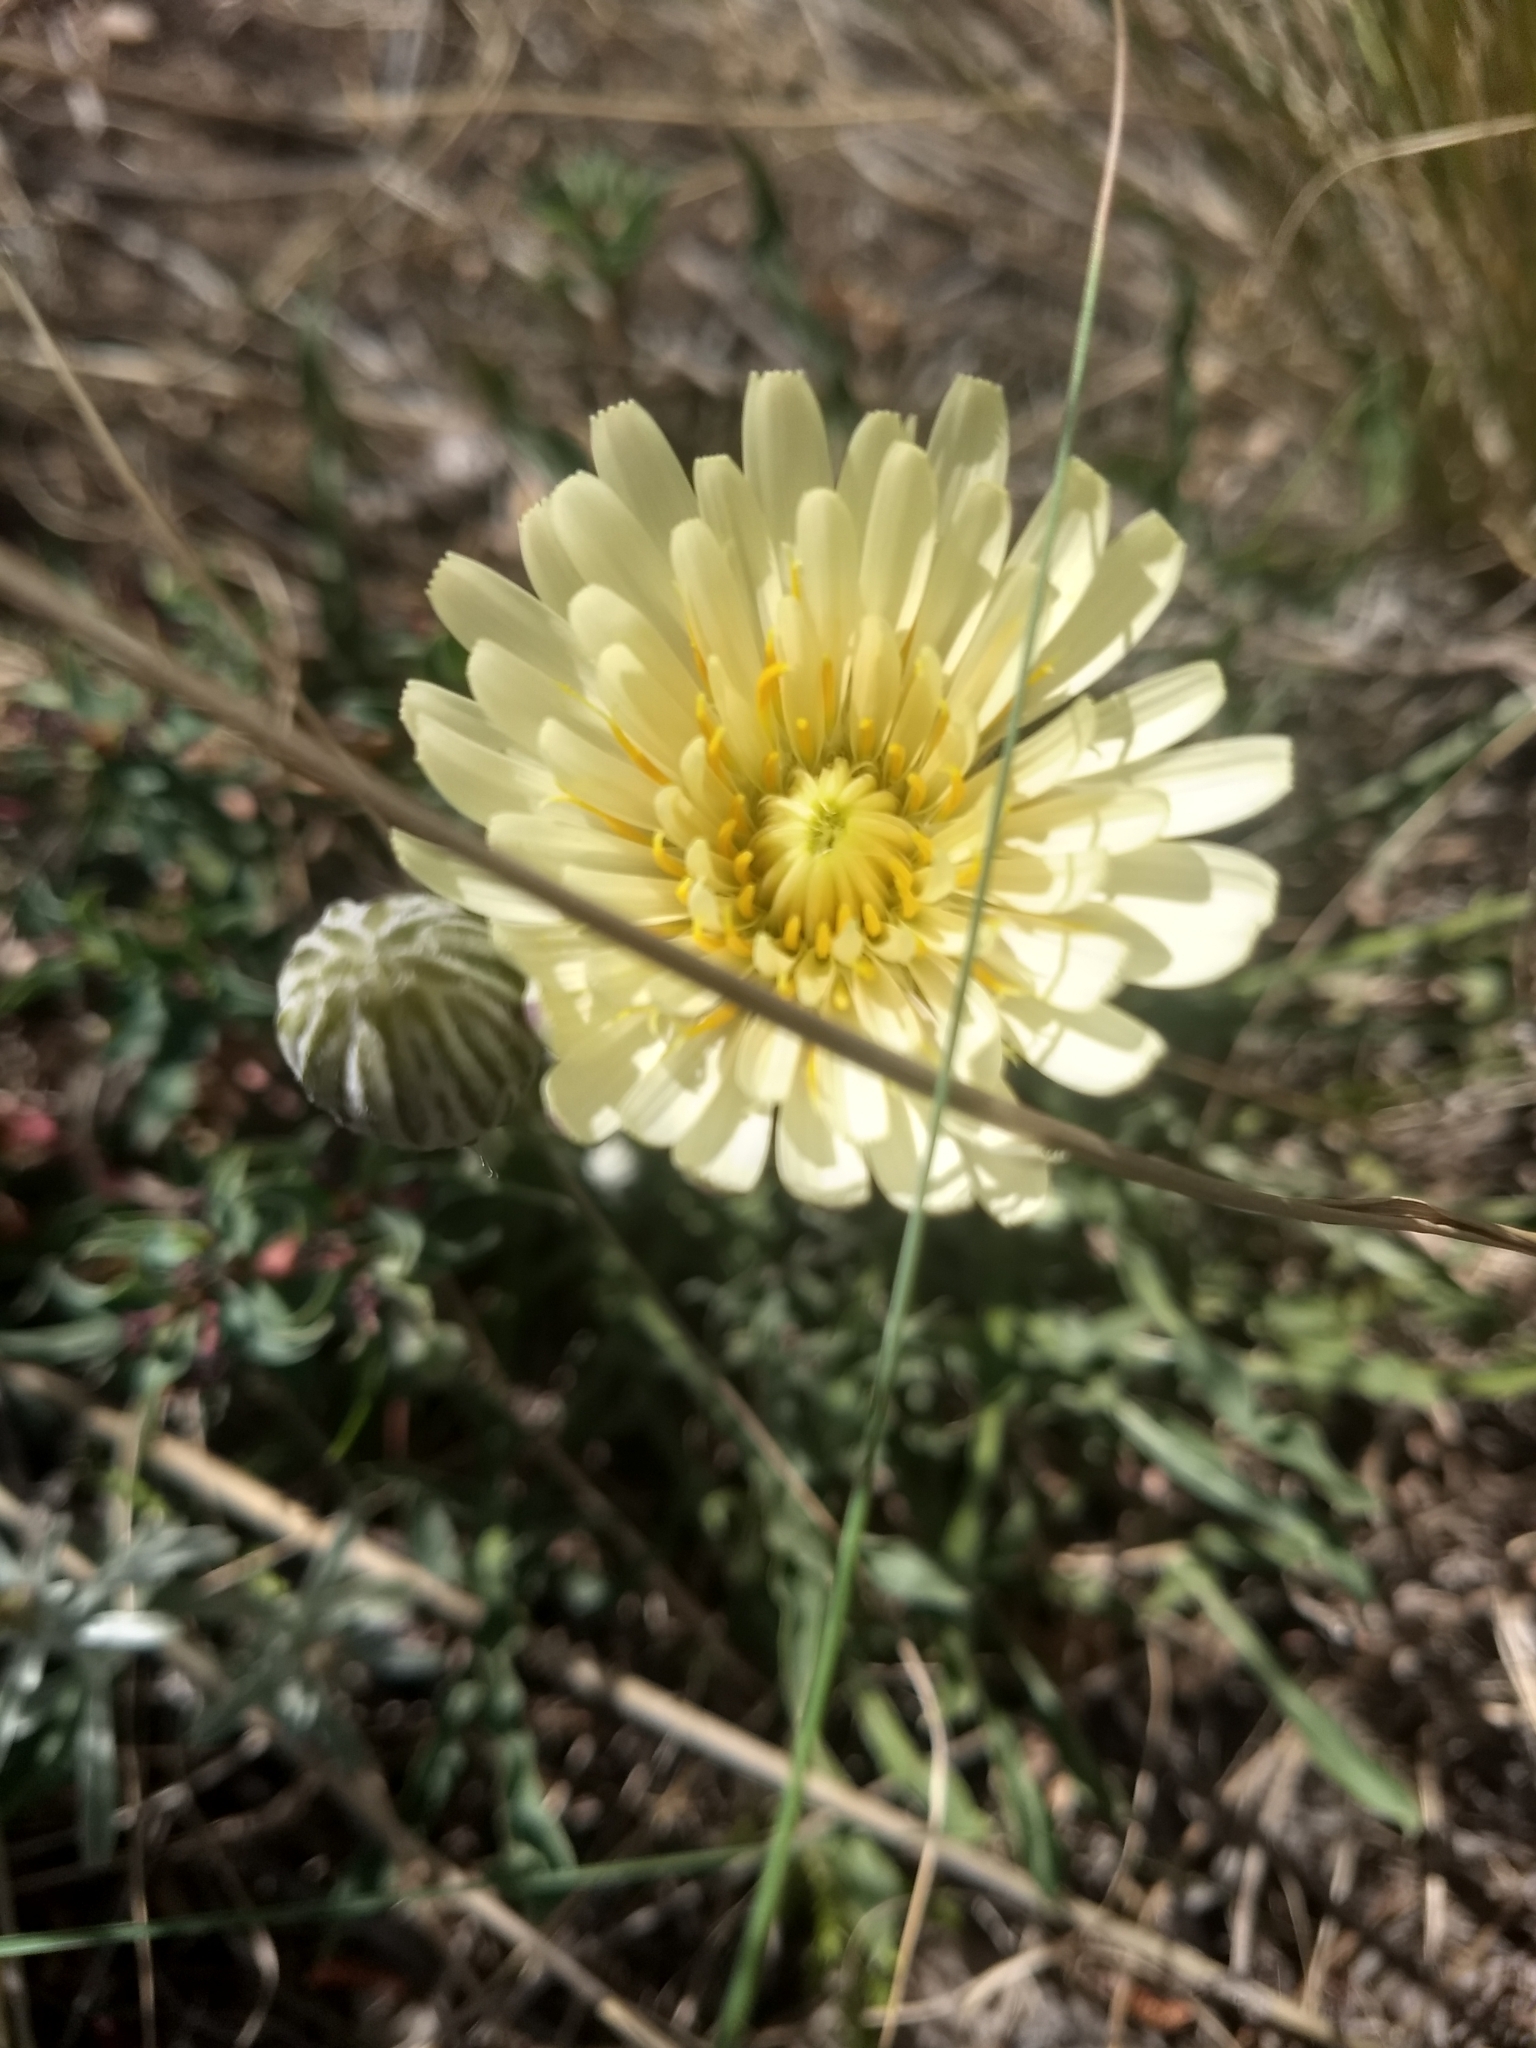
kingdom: Plantae
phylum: Tracheophyta
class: Magnoliopsida
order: Asterales
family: Asteraceae
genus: Hypochaeris
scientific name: Hypochaeris neopinnatifida
